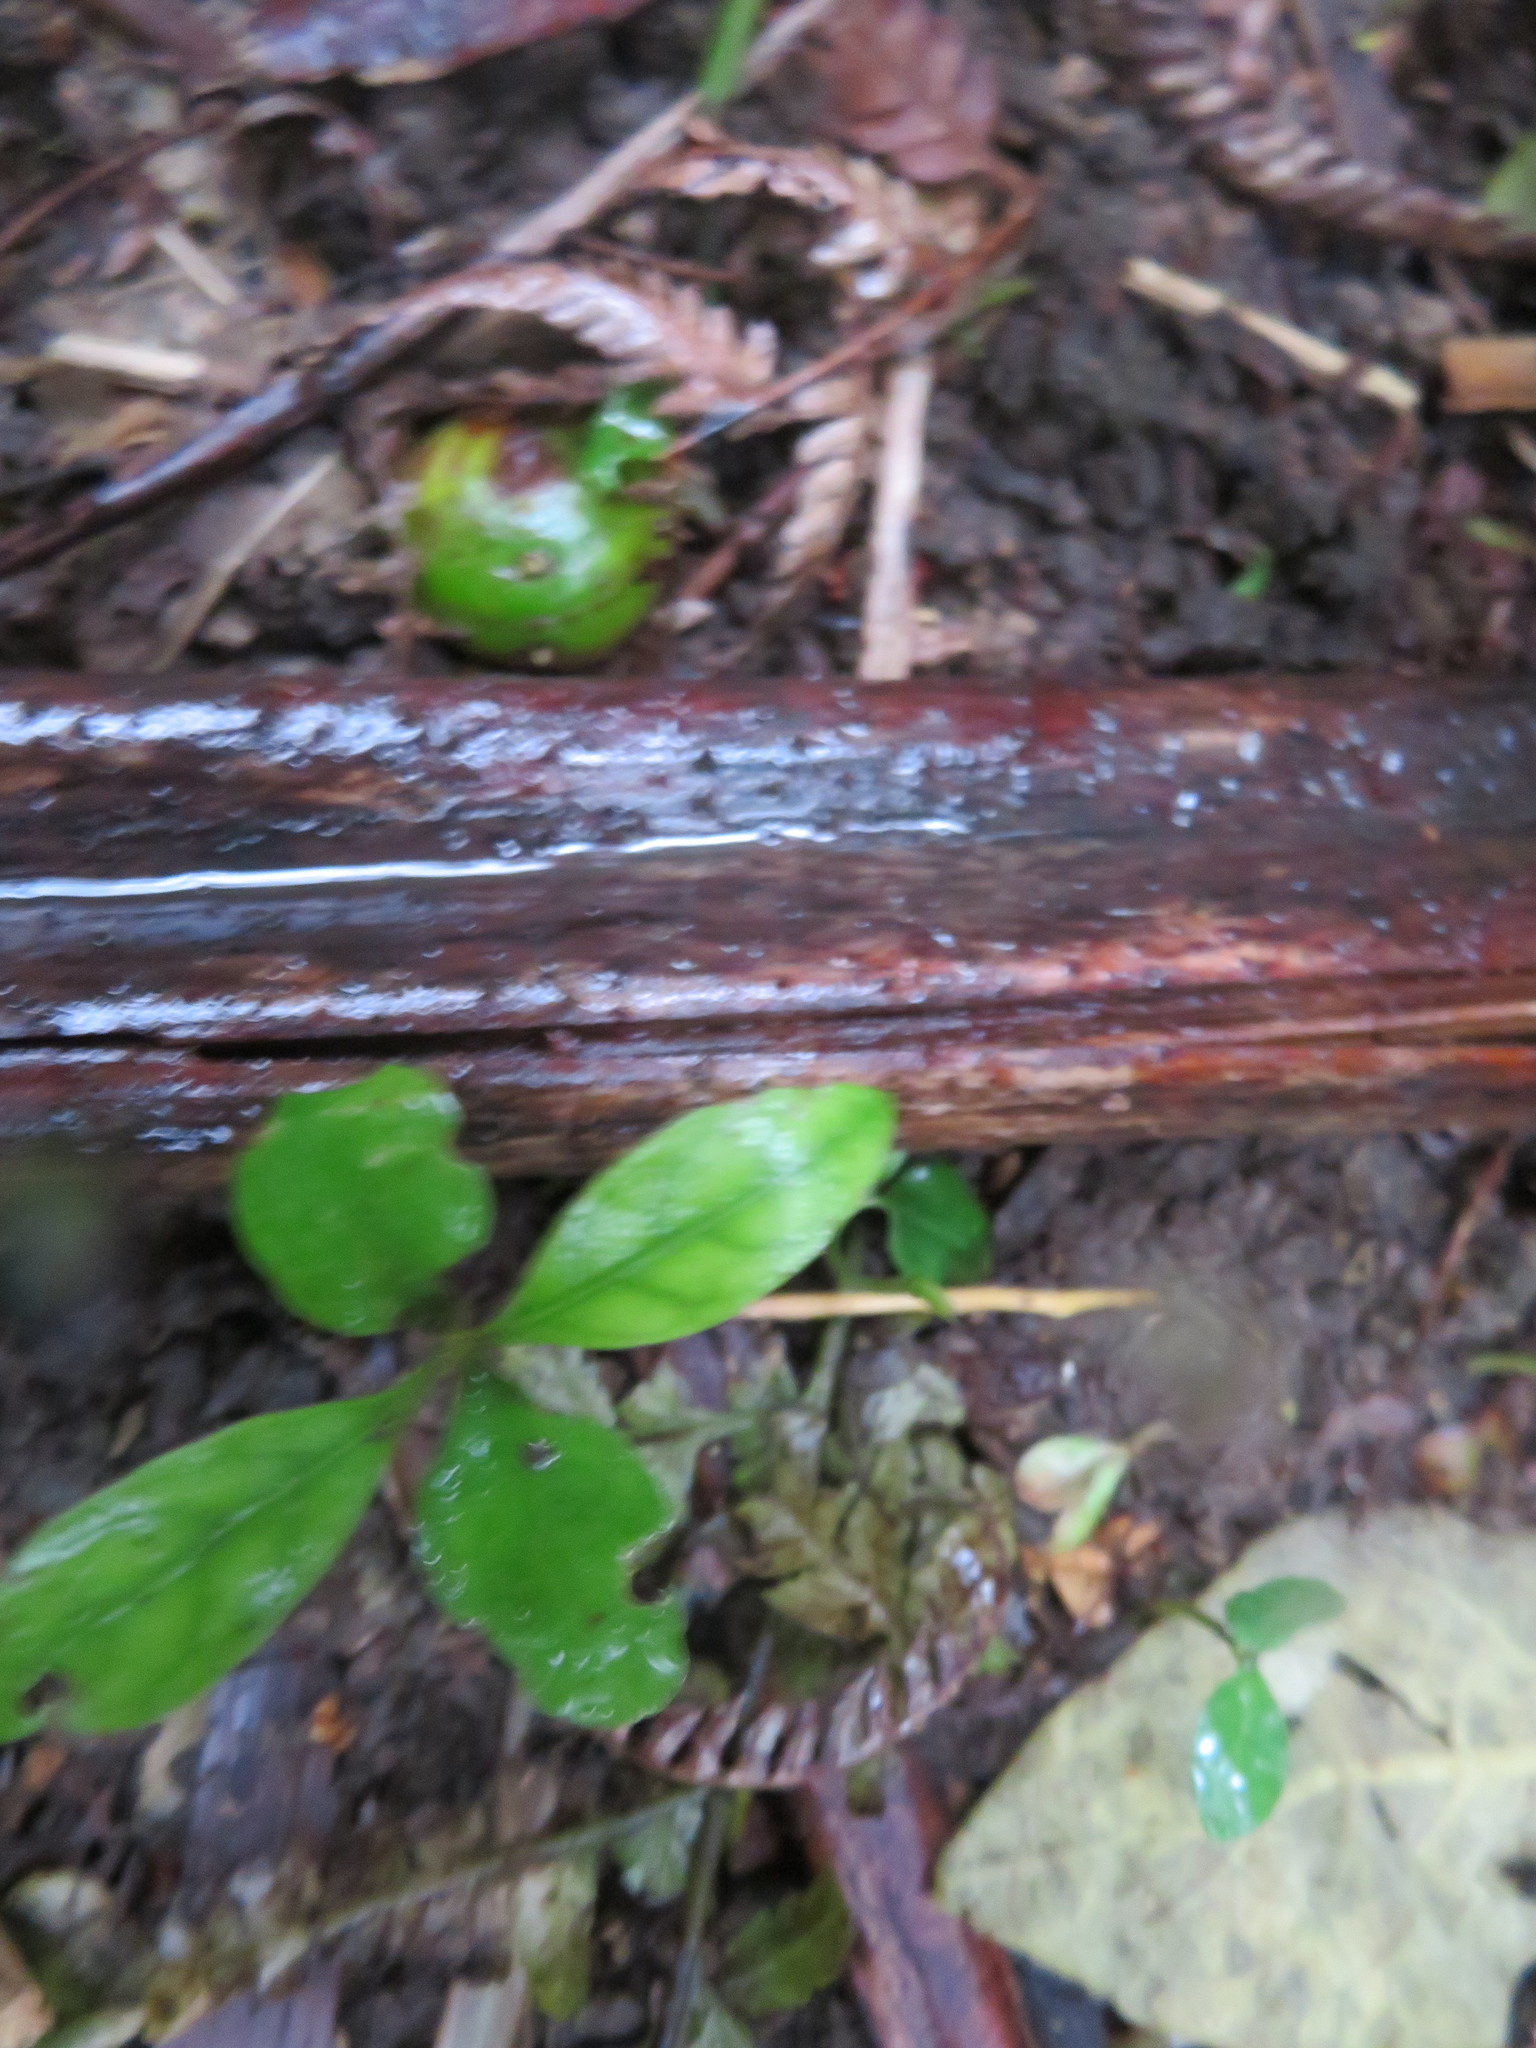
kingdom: Plantae
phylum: Tracheophyta
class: Magnoliopsida
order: Gentianales
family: Rubiaceae
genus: Coprosma
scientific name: Coprosma autumnalis
